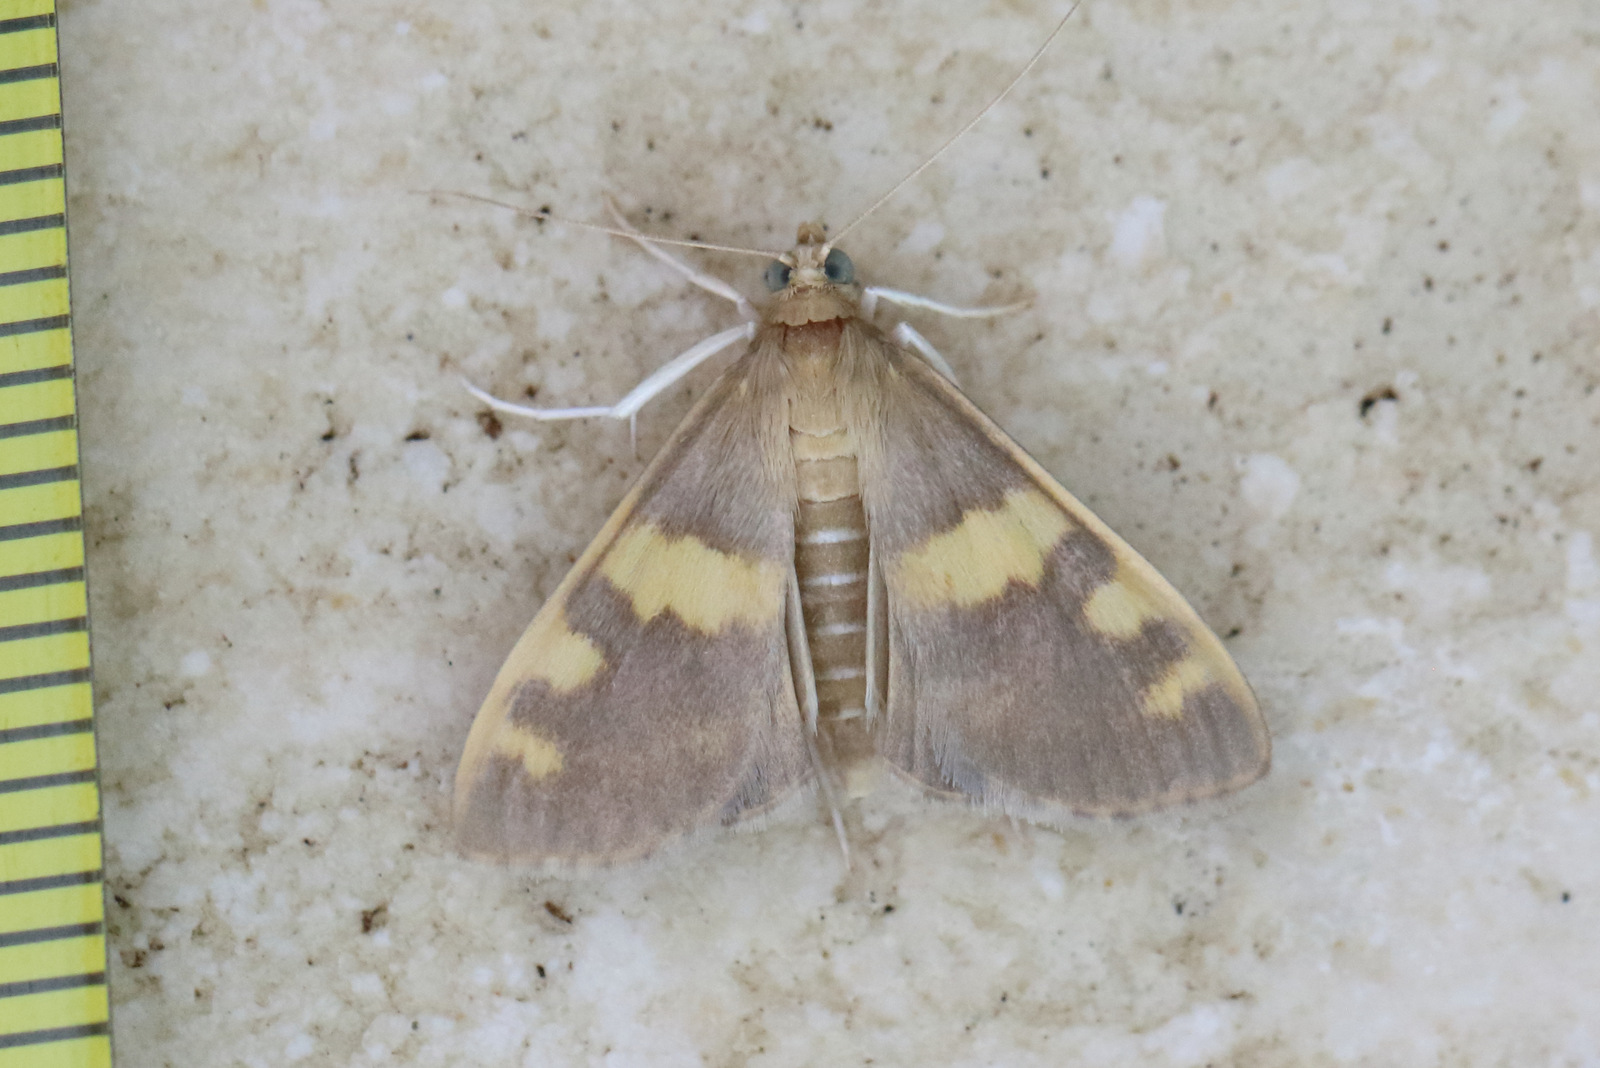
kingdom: Animalia
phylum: Arthropoda
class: Insecta
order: Lepidoptera
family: Crambidae
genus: Rehimena
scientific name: Rehimena surusalis
